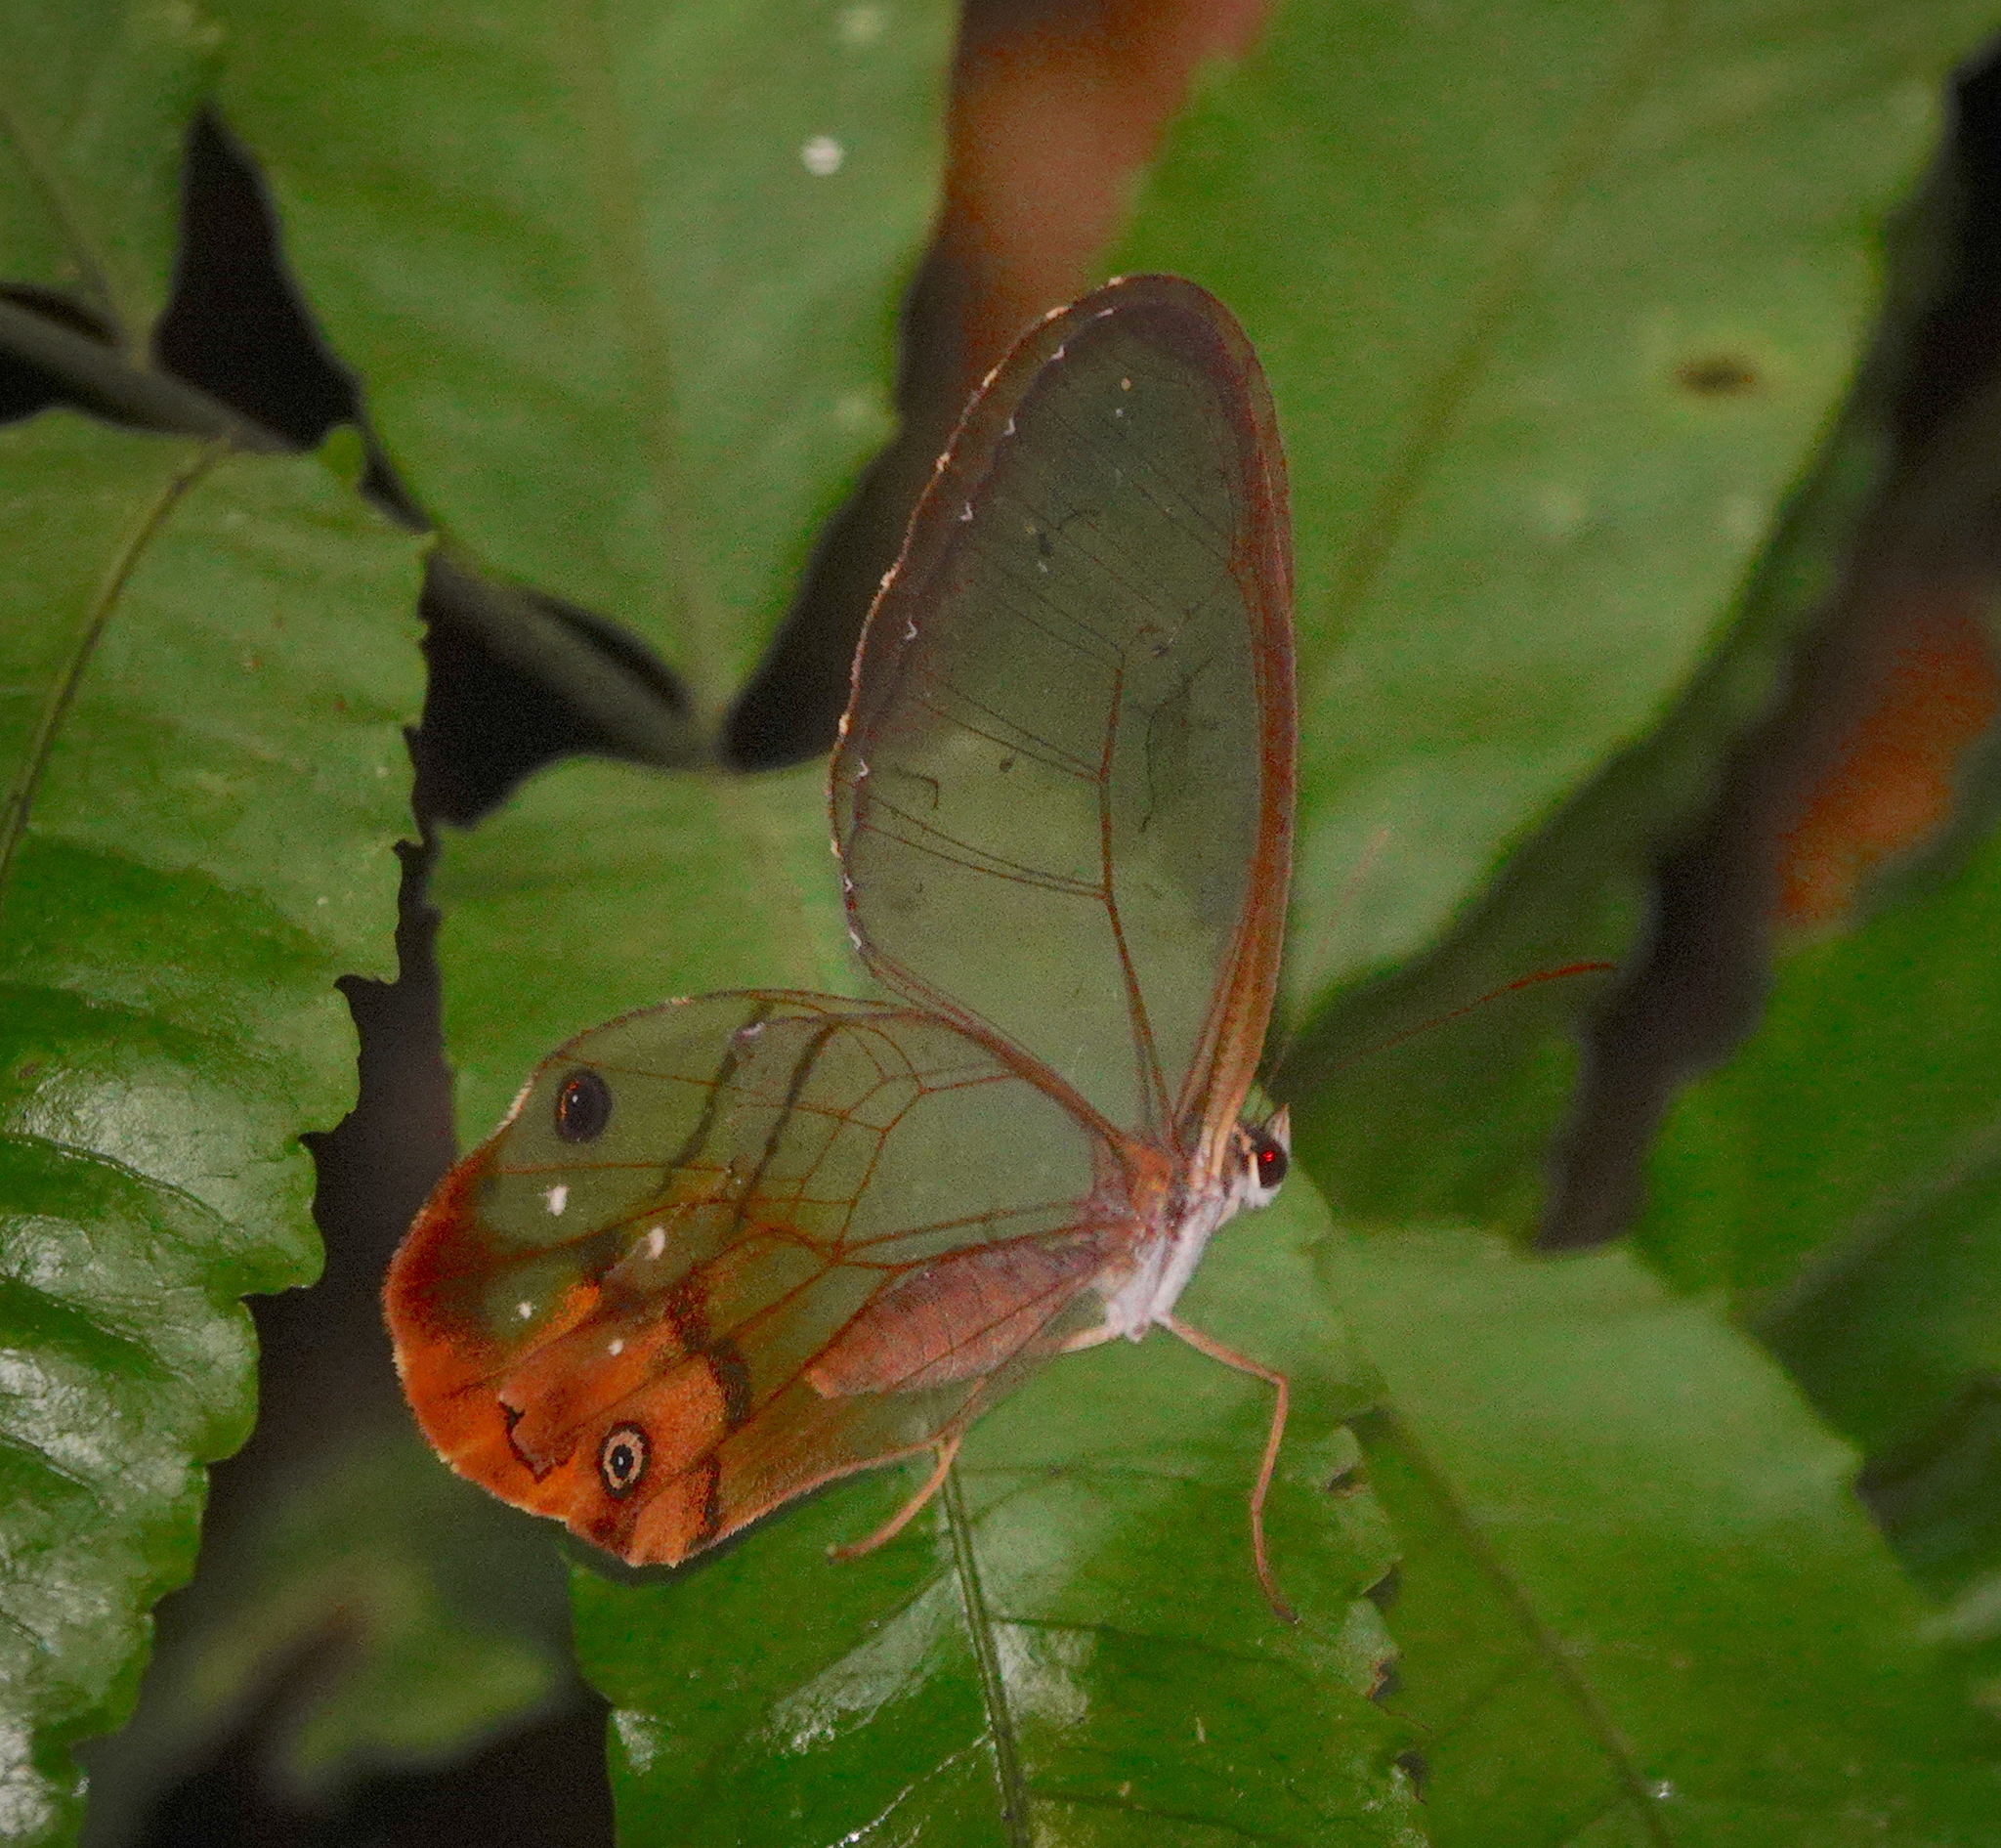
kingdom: Animalia
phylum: Arthropoda
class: Insecta
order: Lepidoptera
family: Nymphalidae
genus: Haetera
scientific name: Haetera piera
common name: Amber phantom
